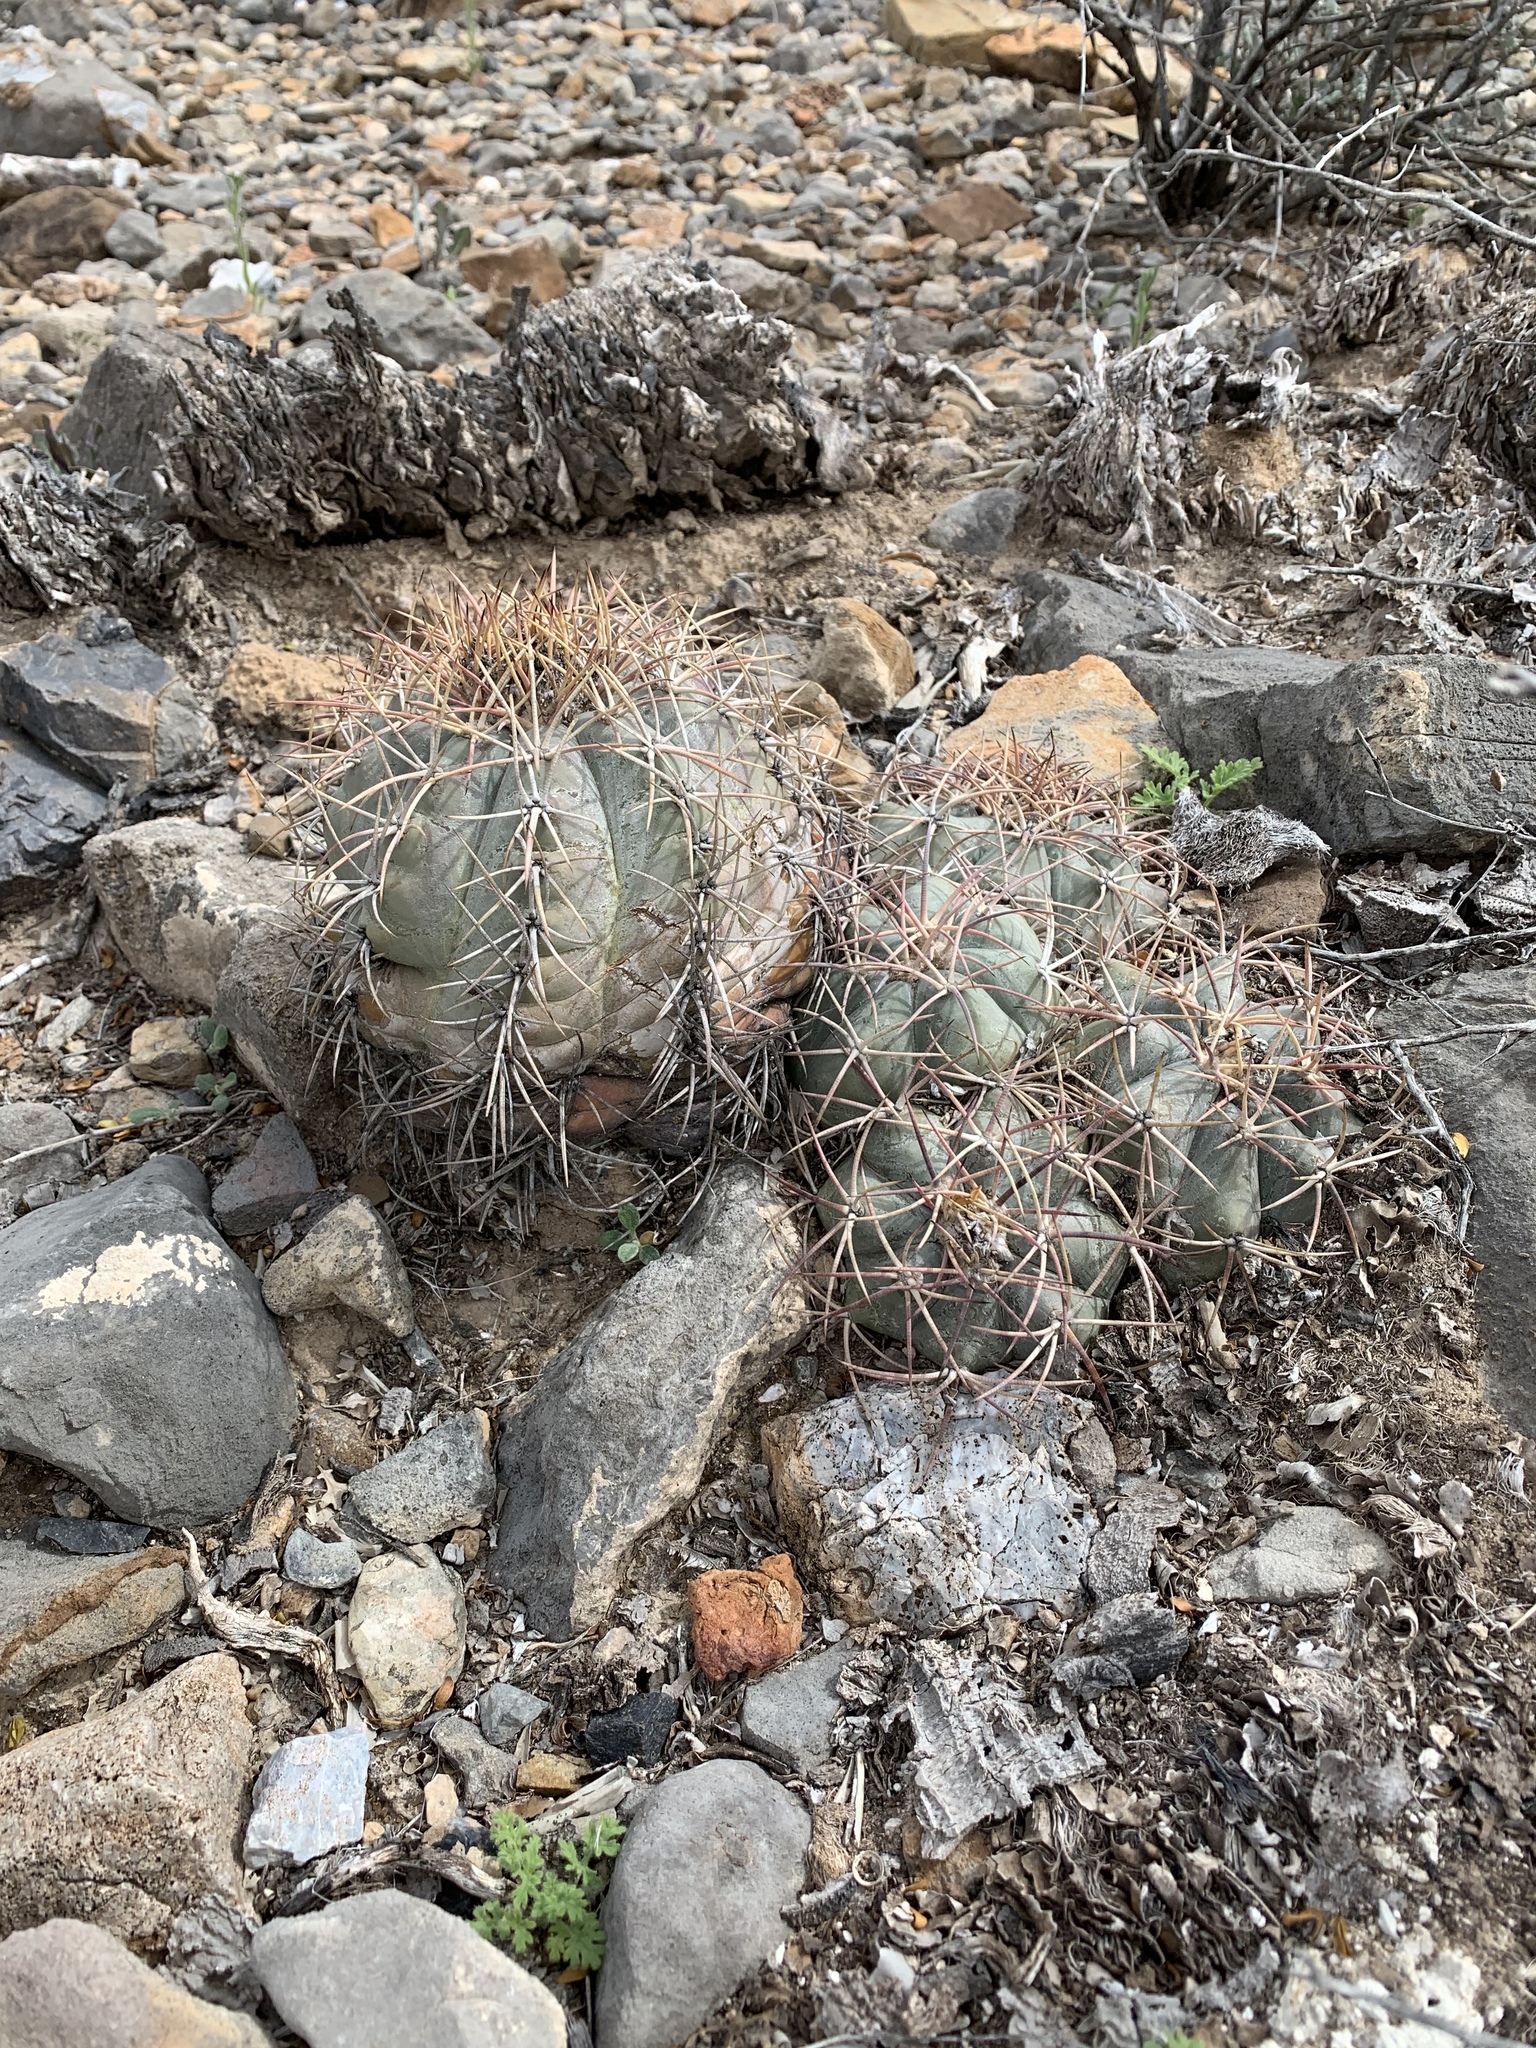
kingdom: Plantae
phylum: Tracheophyta
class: Magnoliopsida
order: Caryophyllales
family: Cactaceae
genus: Echinocactus
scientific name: Echinocactus horizonthalonius
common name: Devilshead
